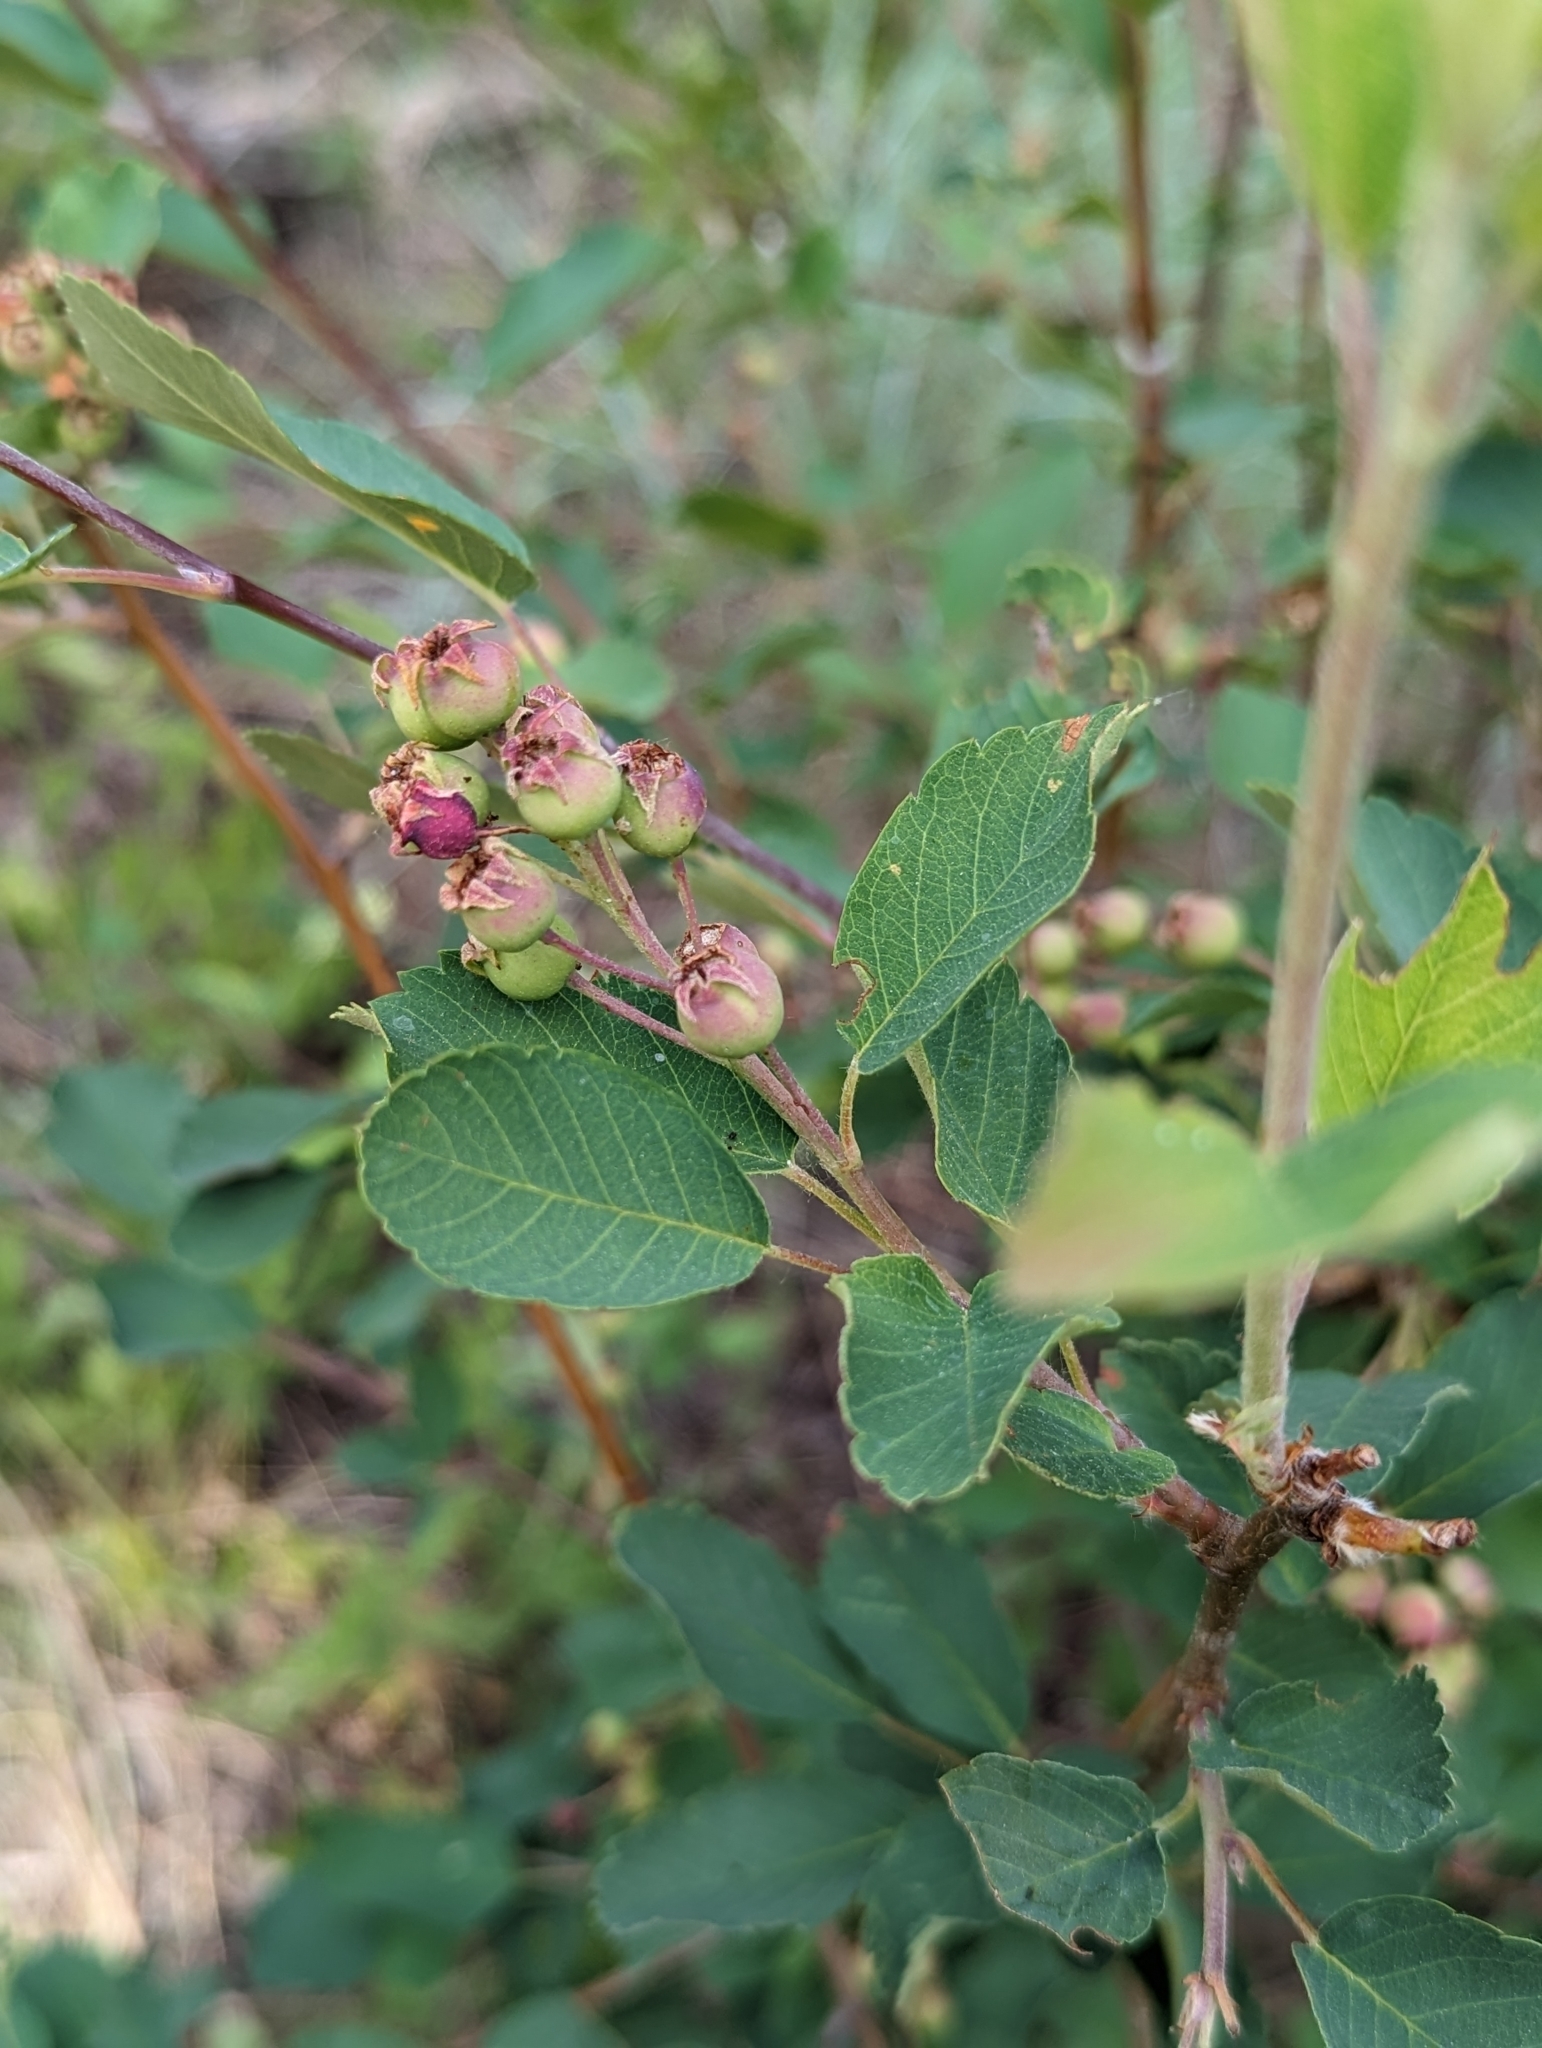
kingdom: Plantae
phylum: Tracheophyta
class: Magnoliopsida
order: Rosales
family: Rosaceae
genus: Amelanchier
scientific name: Amelanchier alnifolia
